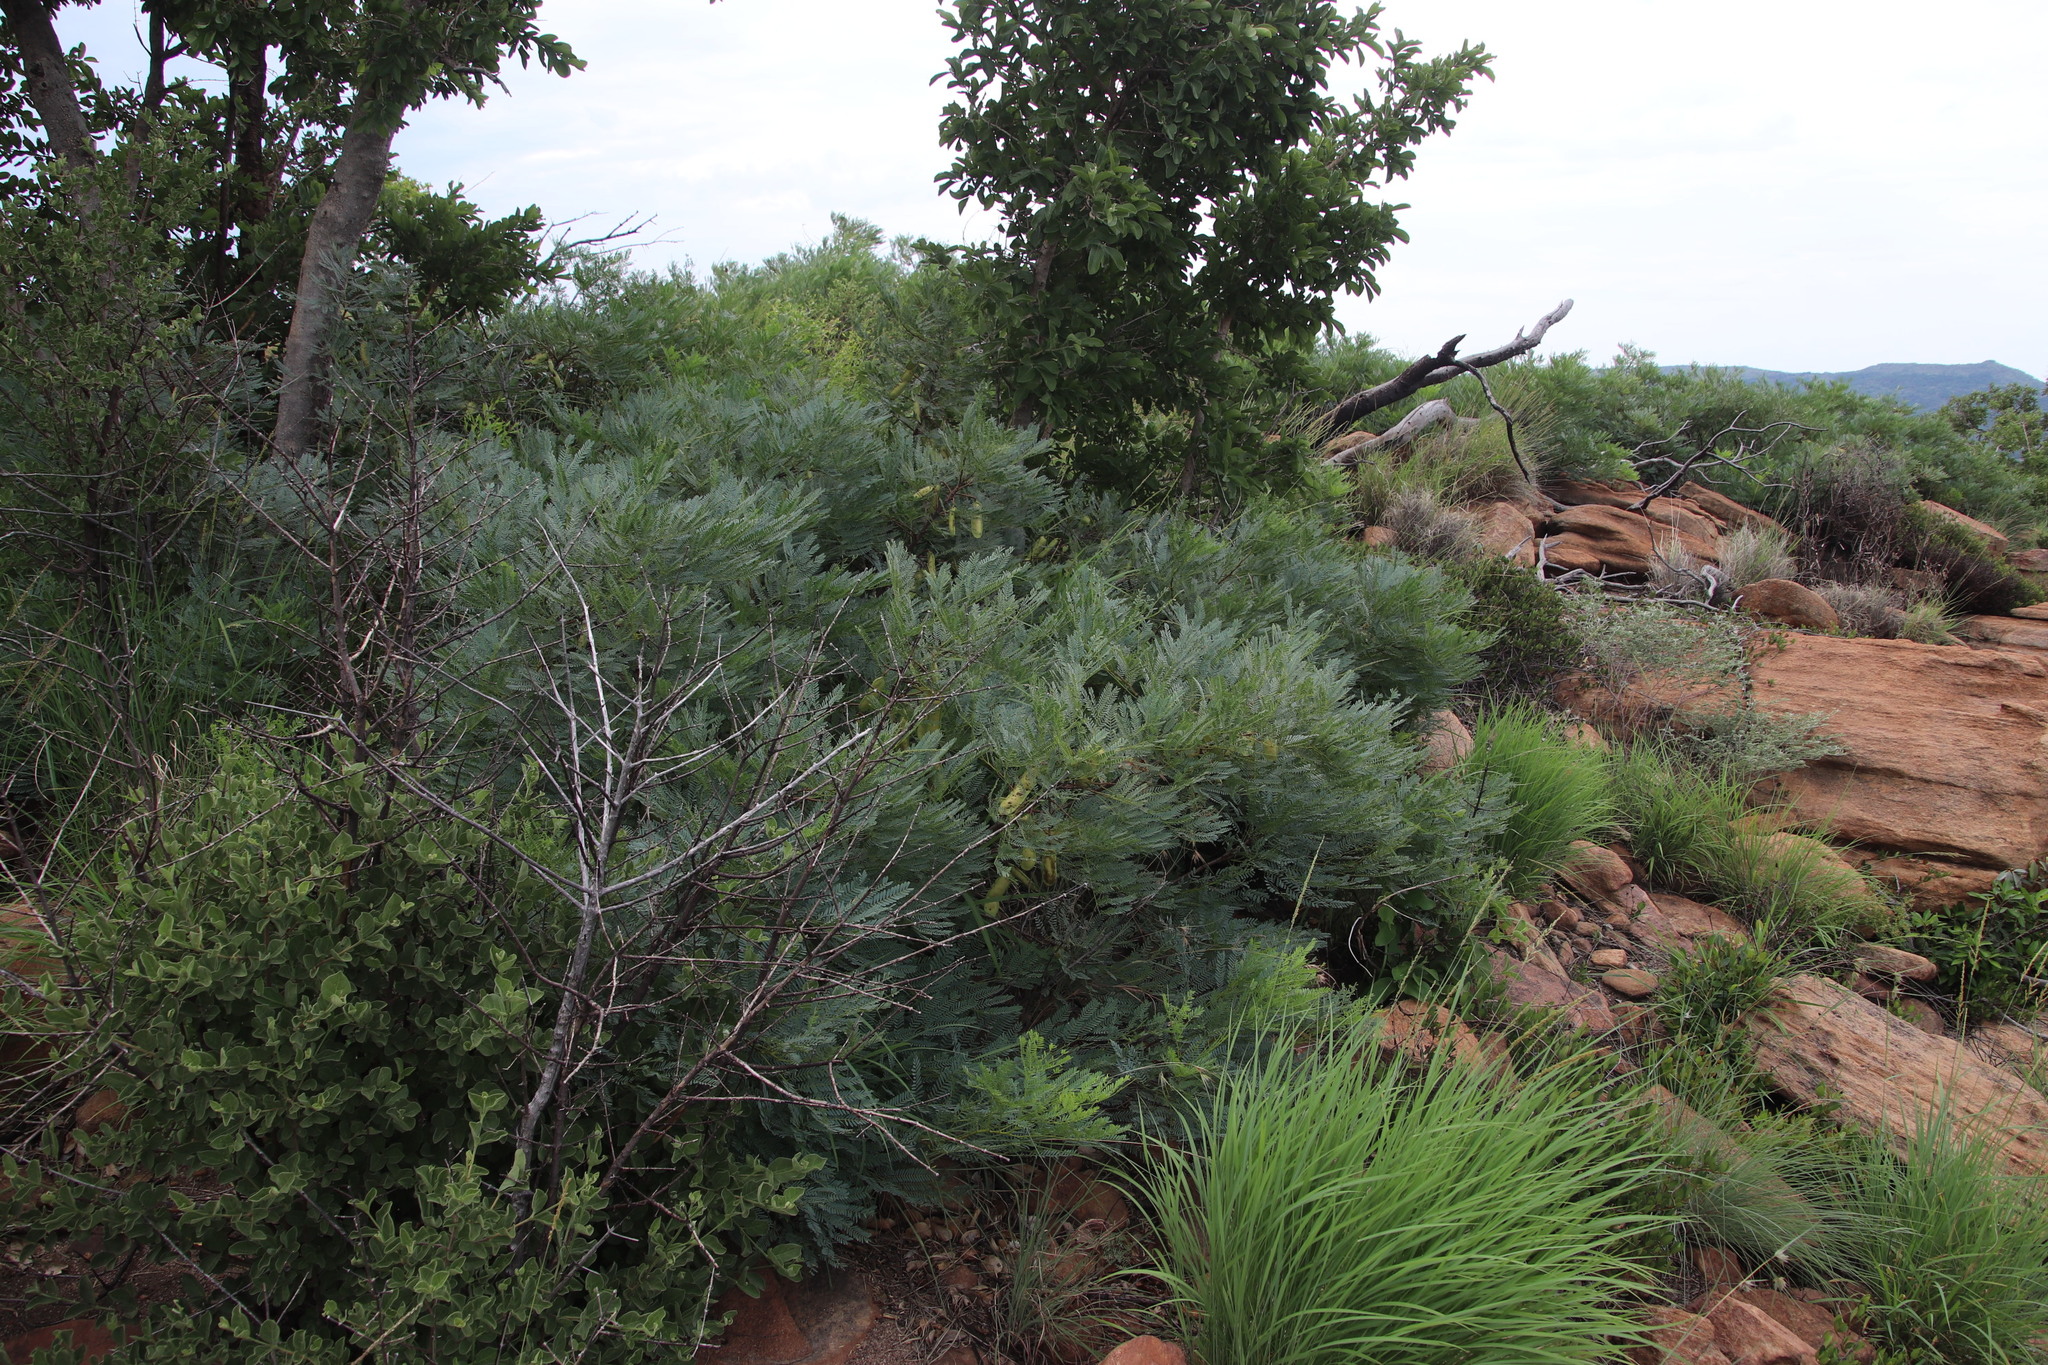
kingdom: Plantae
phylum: Tracheophyta
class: Magnoliopsida
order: Fabales
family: Fabaceae
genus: Elephantorrhiza
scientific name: Elephantorrhiza burkei
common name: Broad-pod elephant-root
